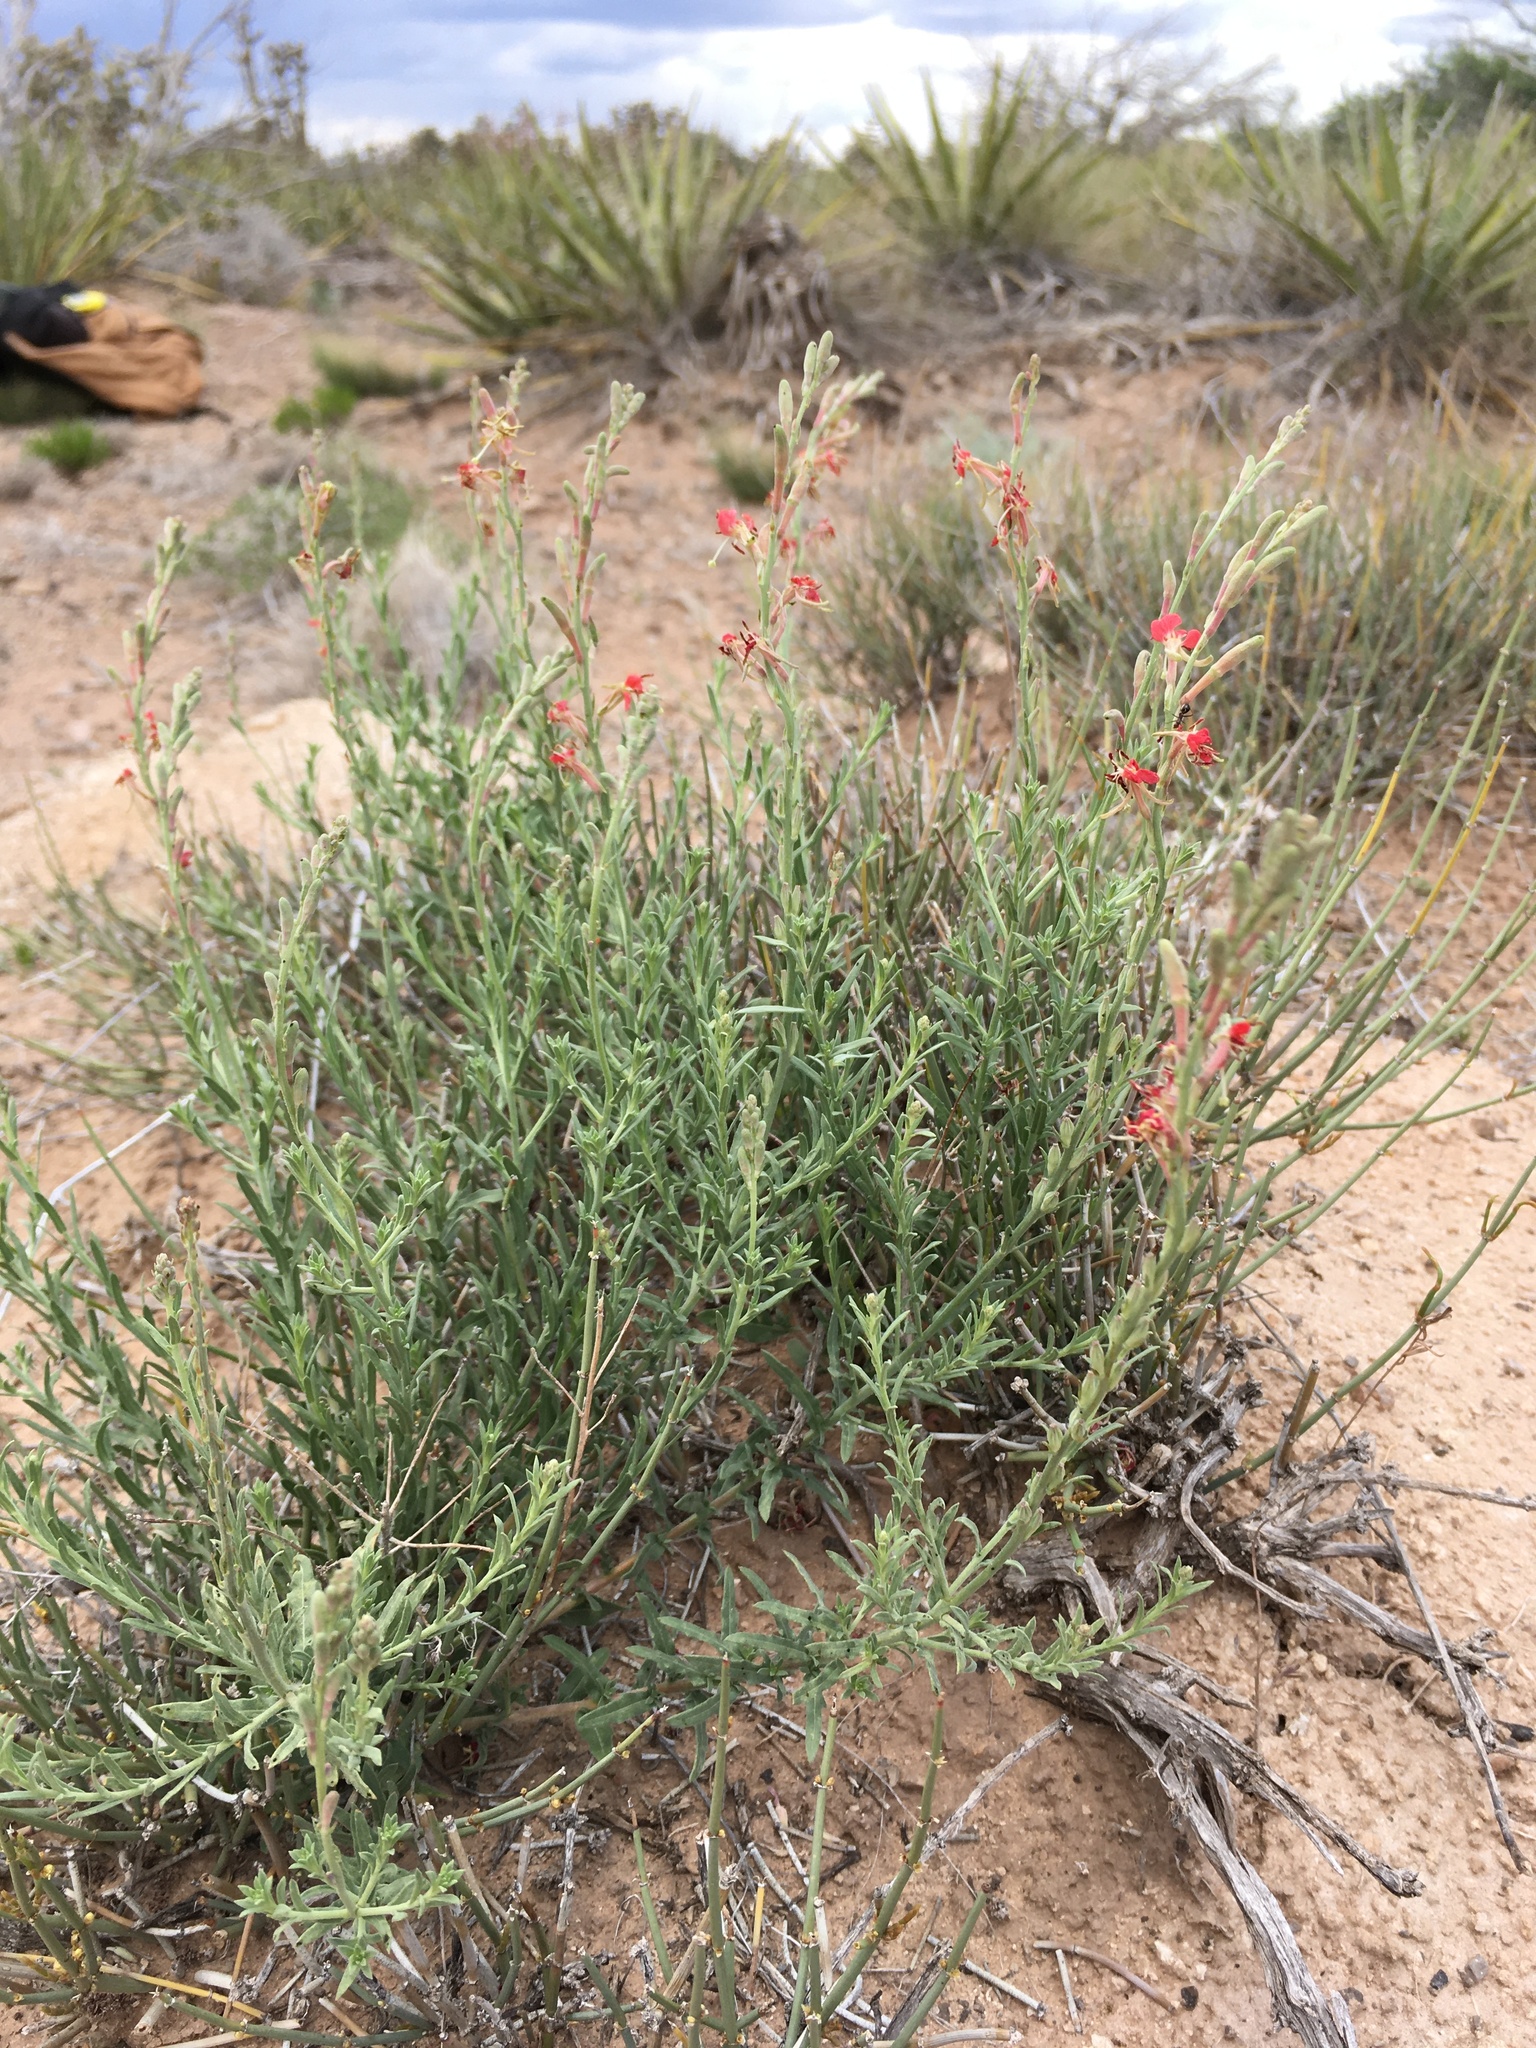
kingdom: Plantae
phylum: Tracheophyta
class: Magnoliopsida
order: Myrtales
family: Onagraceae
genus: Oenothera
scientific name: Oenothera suffrutescens
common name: Scarlet beeblossom
